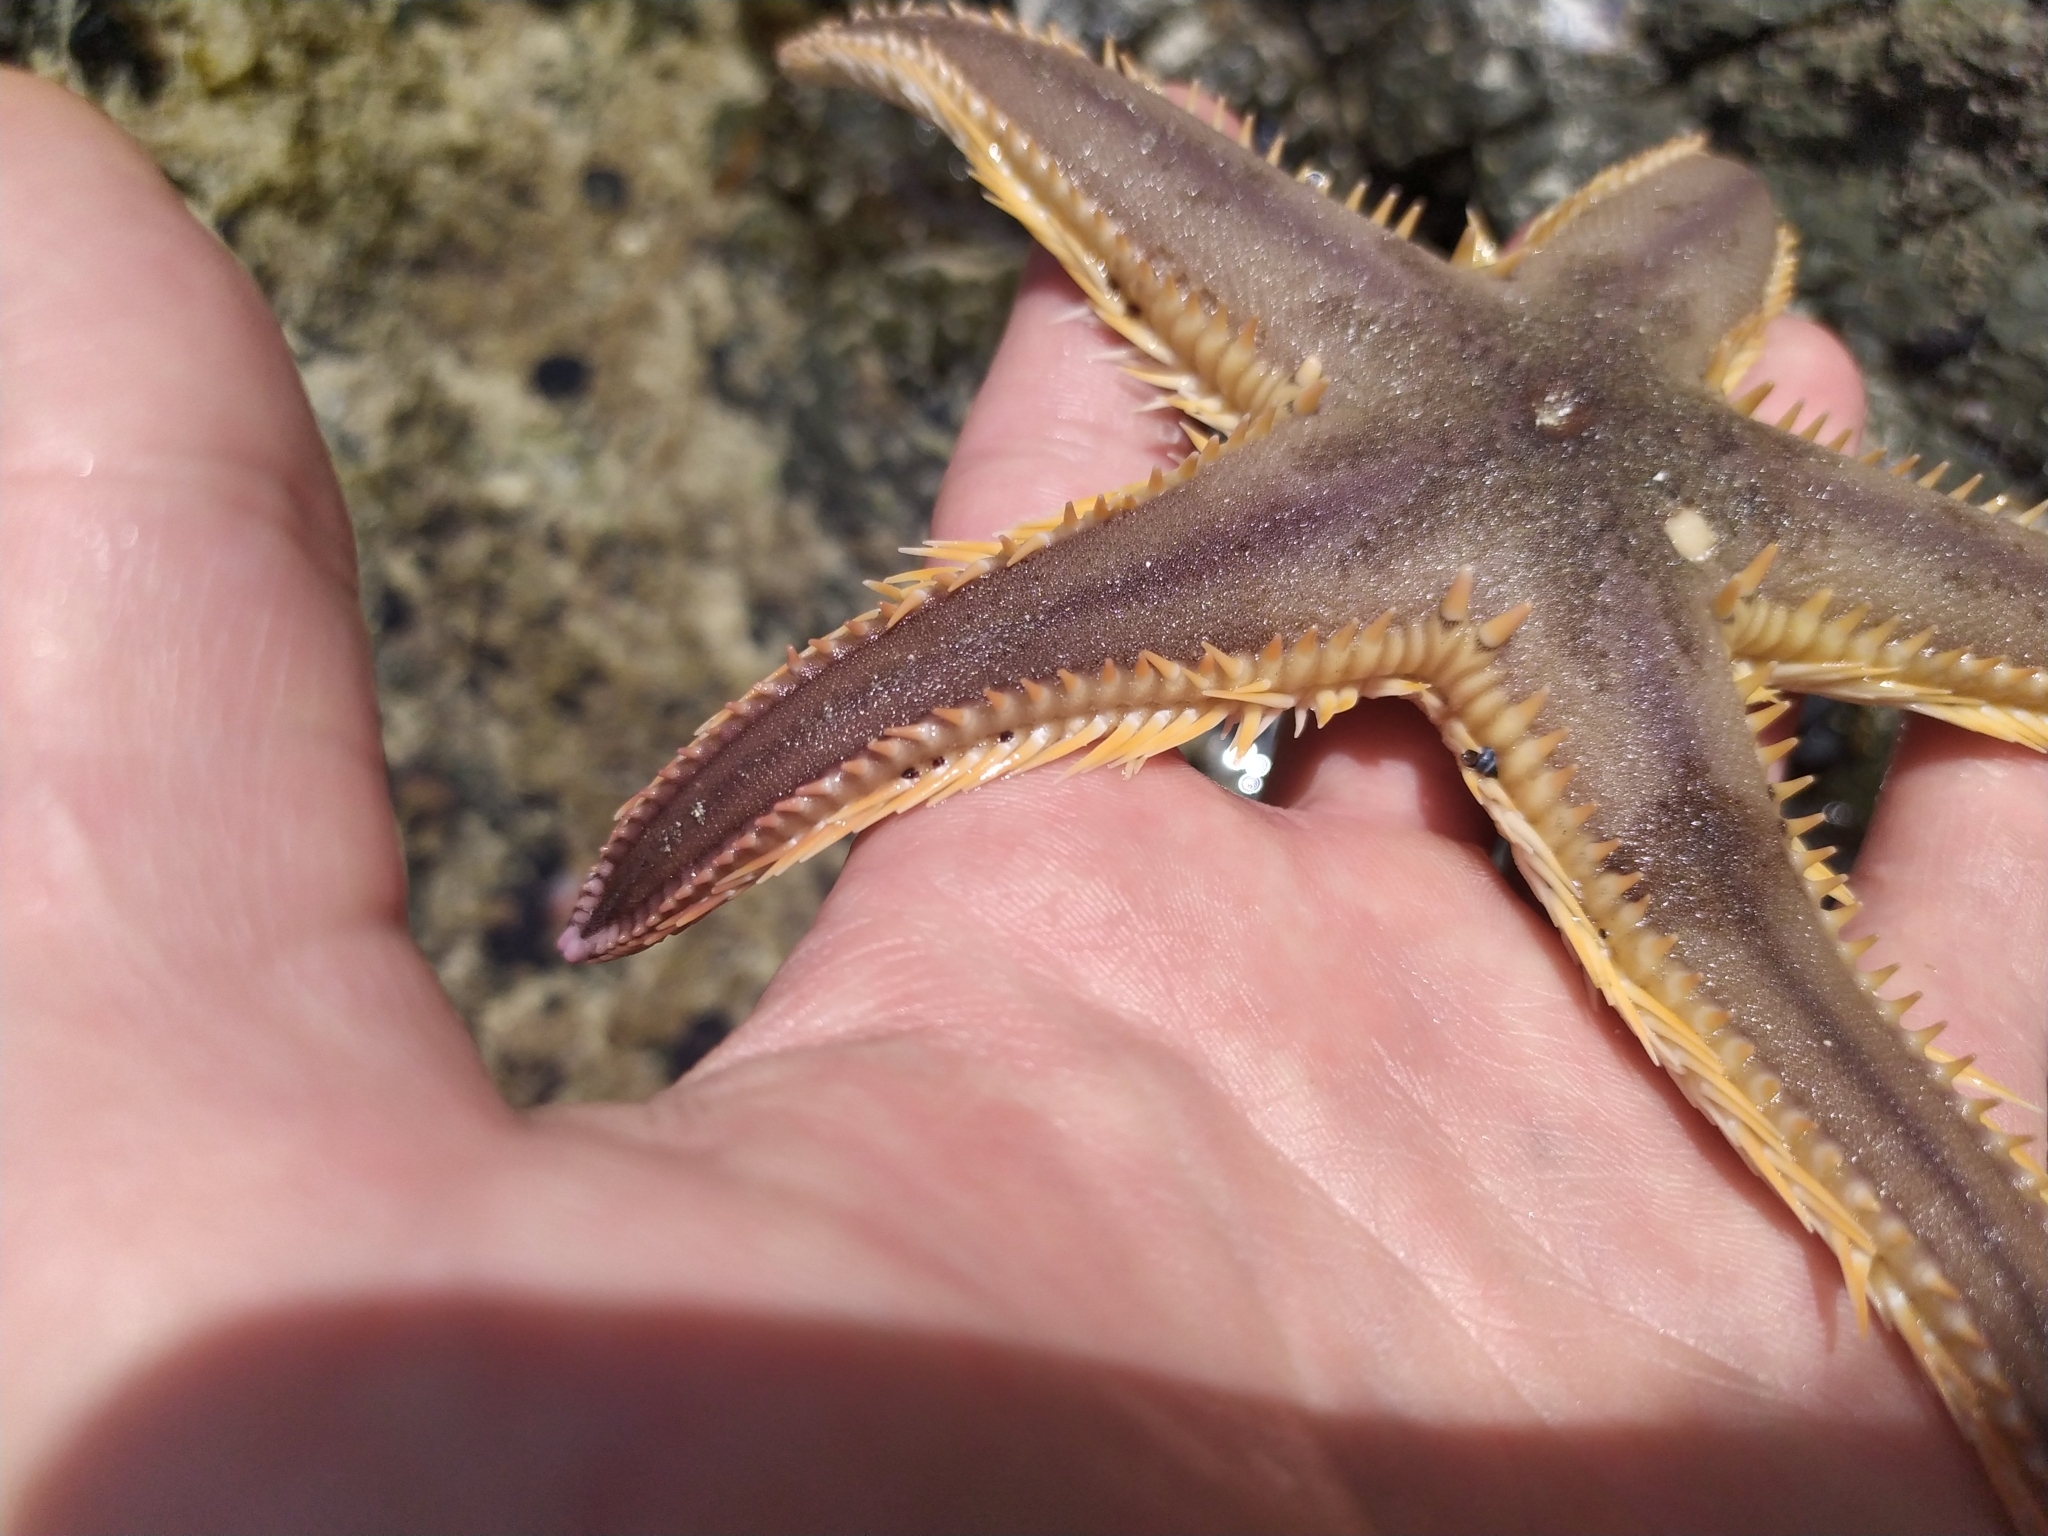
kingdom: Animalia
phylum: Echinodermata
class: Asteroidea
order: Paxillosida
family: Astropectinidae
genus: Astropecten
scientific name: Astropecten polyacanthus
